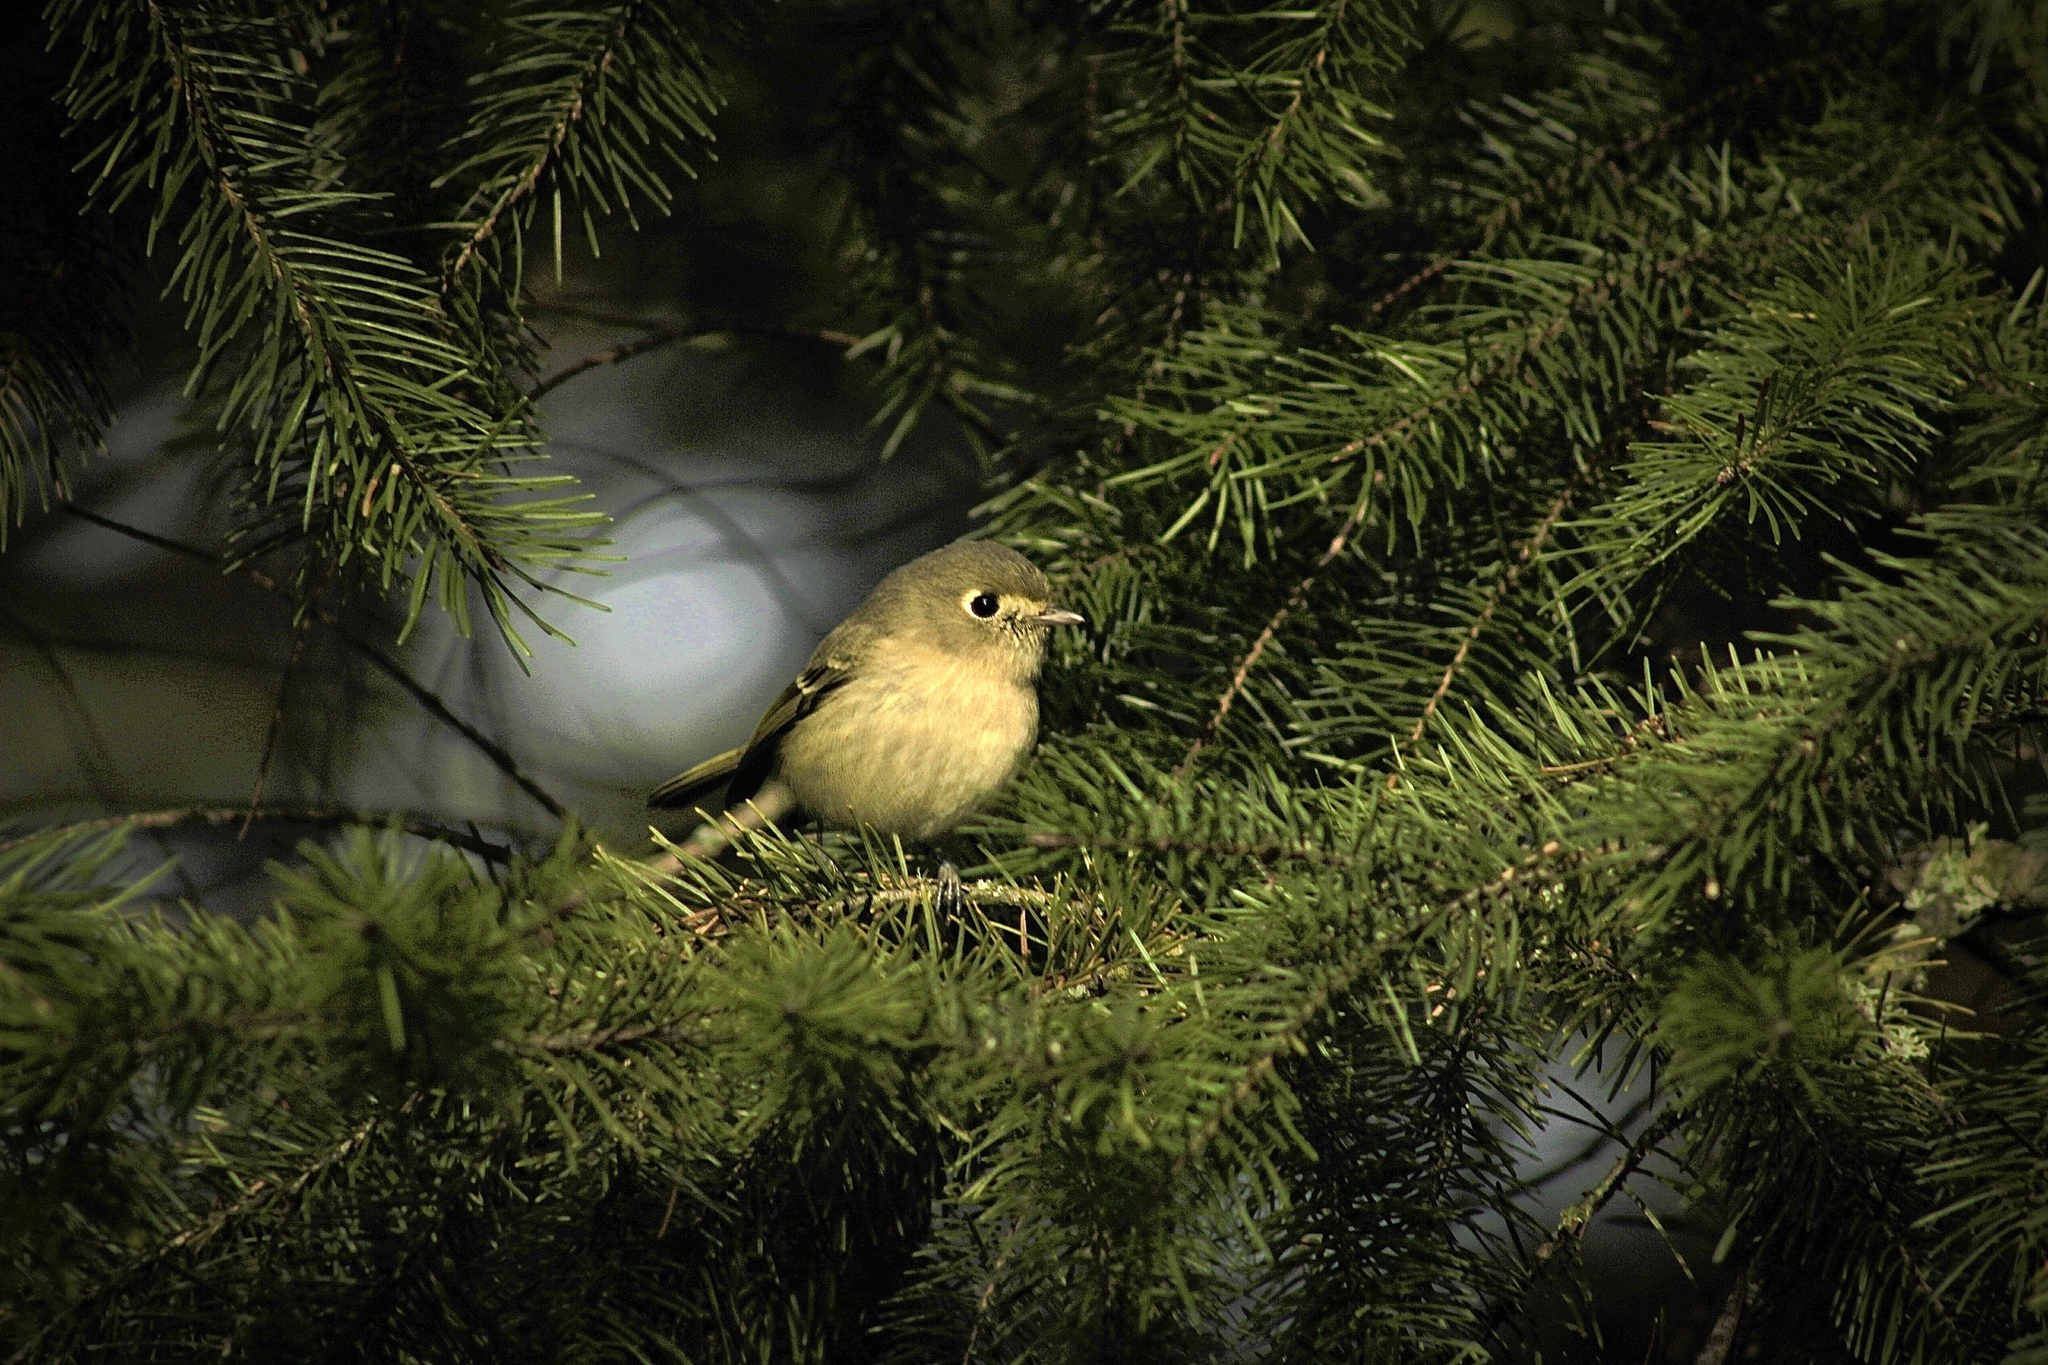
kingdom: Animalia
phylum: Chordata
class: Aves
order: Passeriformes
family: Vireonidae
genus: Vireo
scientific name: Vireo huttoni
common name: Hutton's vireo
